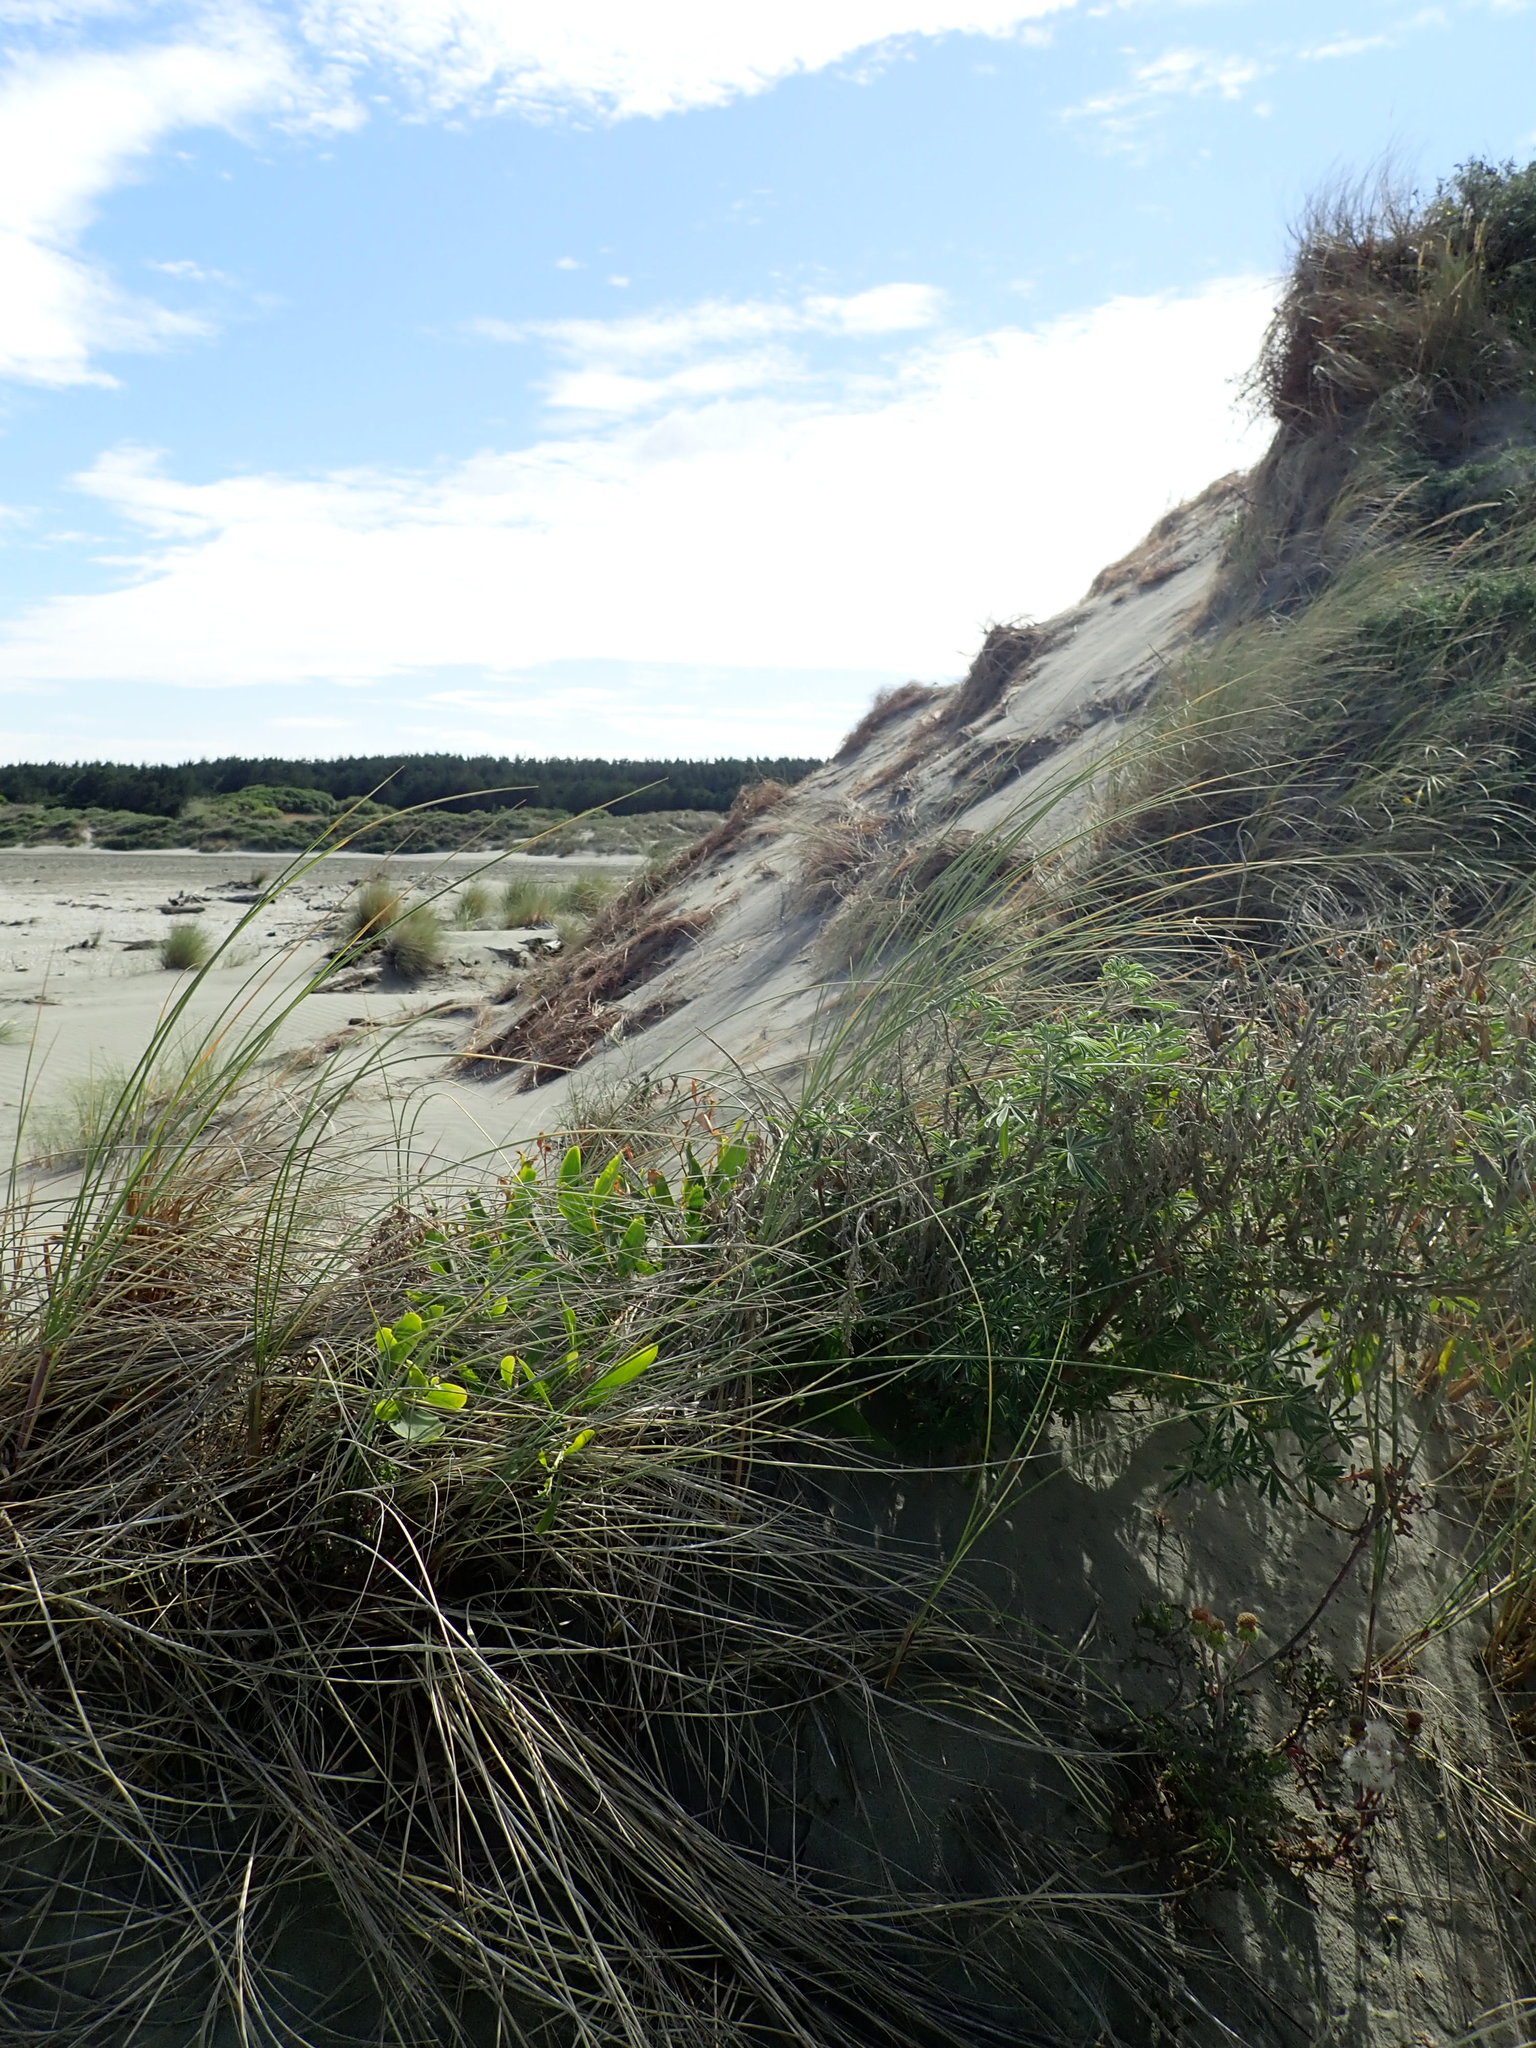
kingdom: Plantae
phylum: Tracheophyta
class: Magnoliopsida
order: Fabales
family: Fabaceae
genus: Lupinus
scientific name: Lupinus arboreus
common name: Yellow bush lupine
